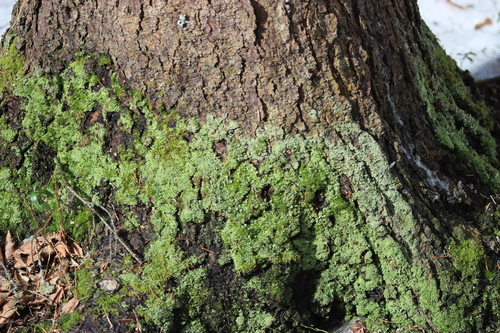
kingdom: Fungi
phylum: Ascomycota
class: Lecanoromycetes
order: Lecanorales
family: Cladoniaceae
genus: Cladonia
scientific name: Cladonia
